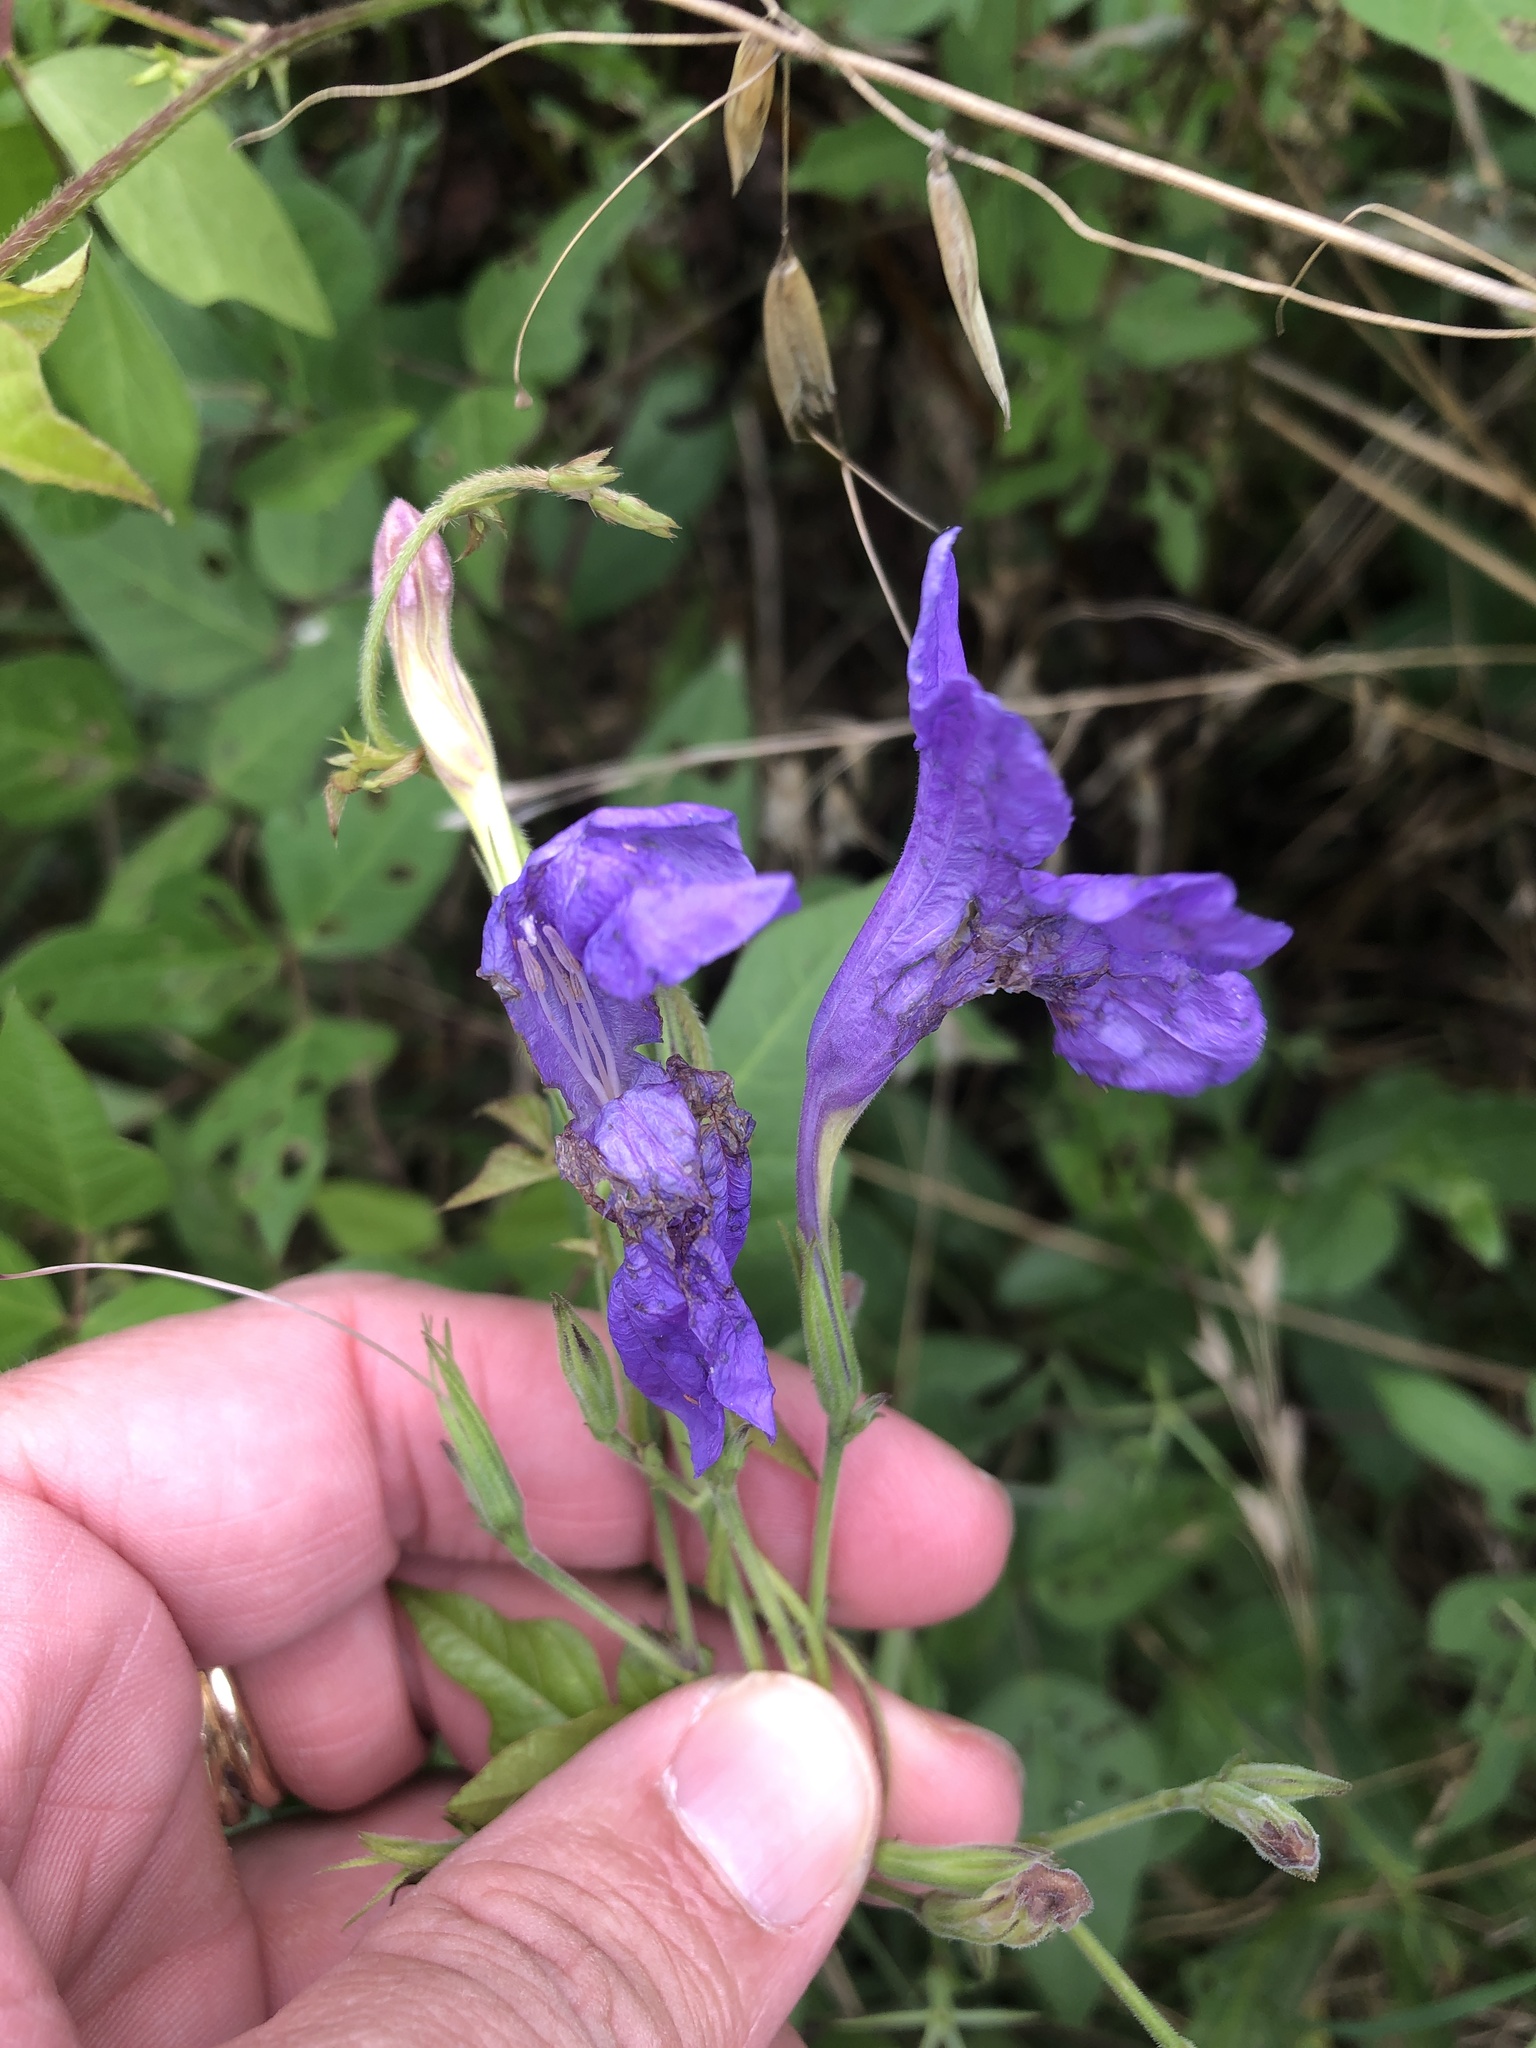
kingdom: Plantae
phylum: Tracheophyta
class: Magnoliopsida
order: Lamiales
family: Acanthaceae
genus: Ruellia
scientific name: Ruellia ciliatiflora
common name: Hairyflower wild petunia
